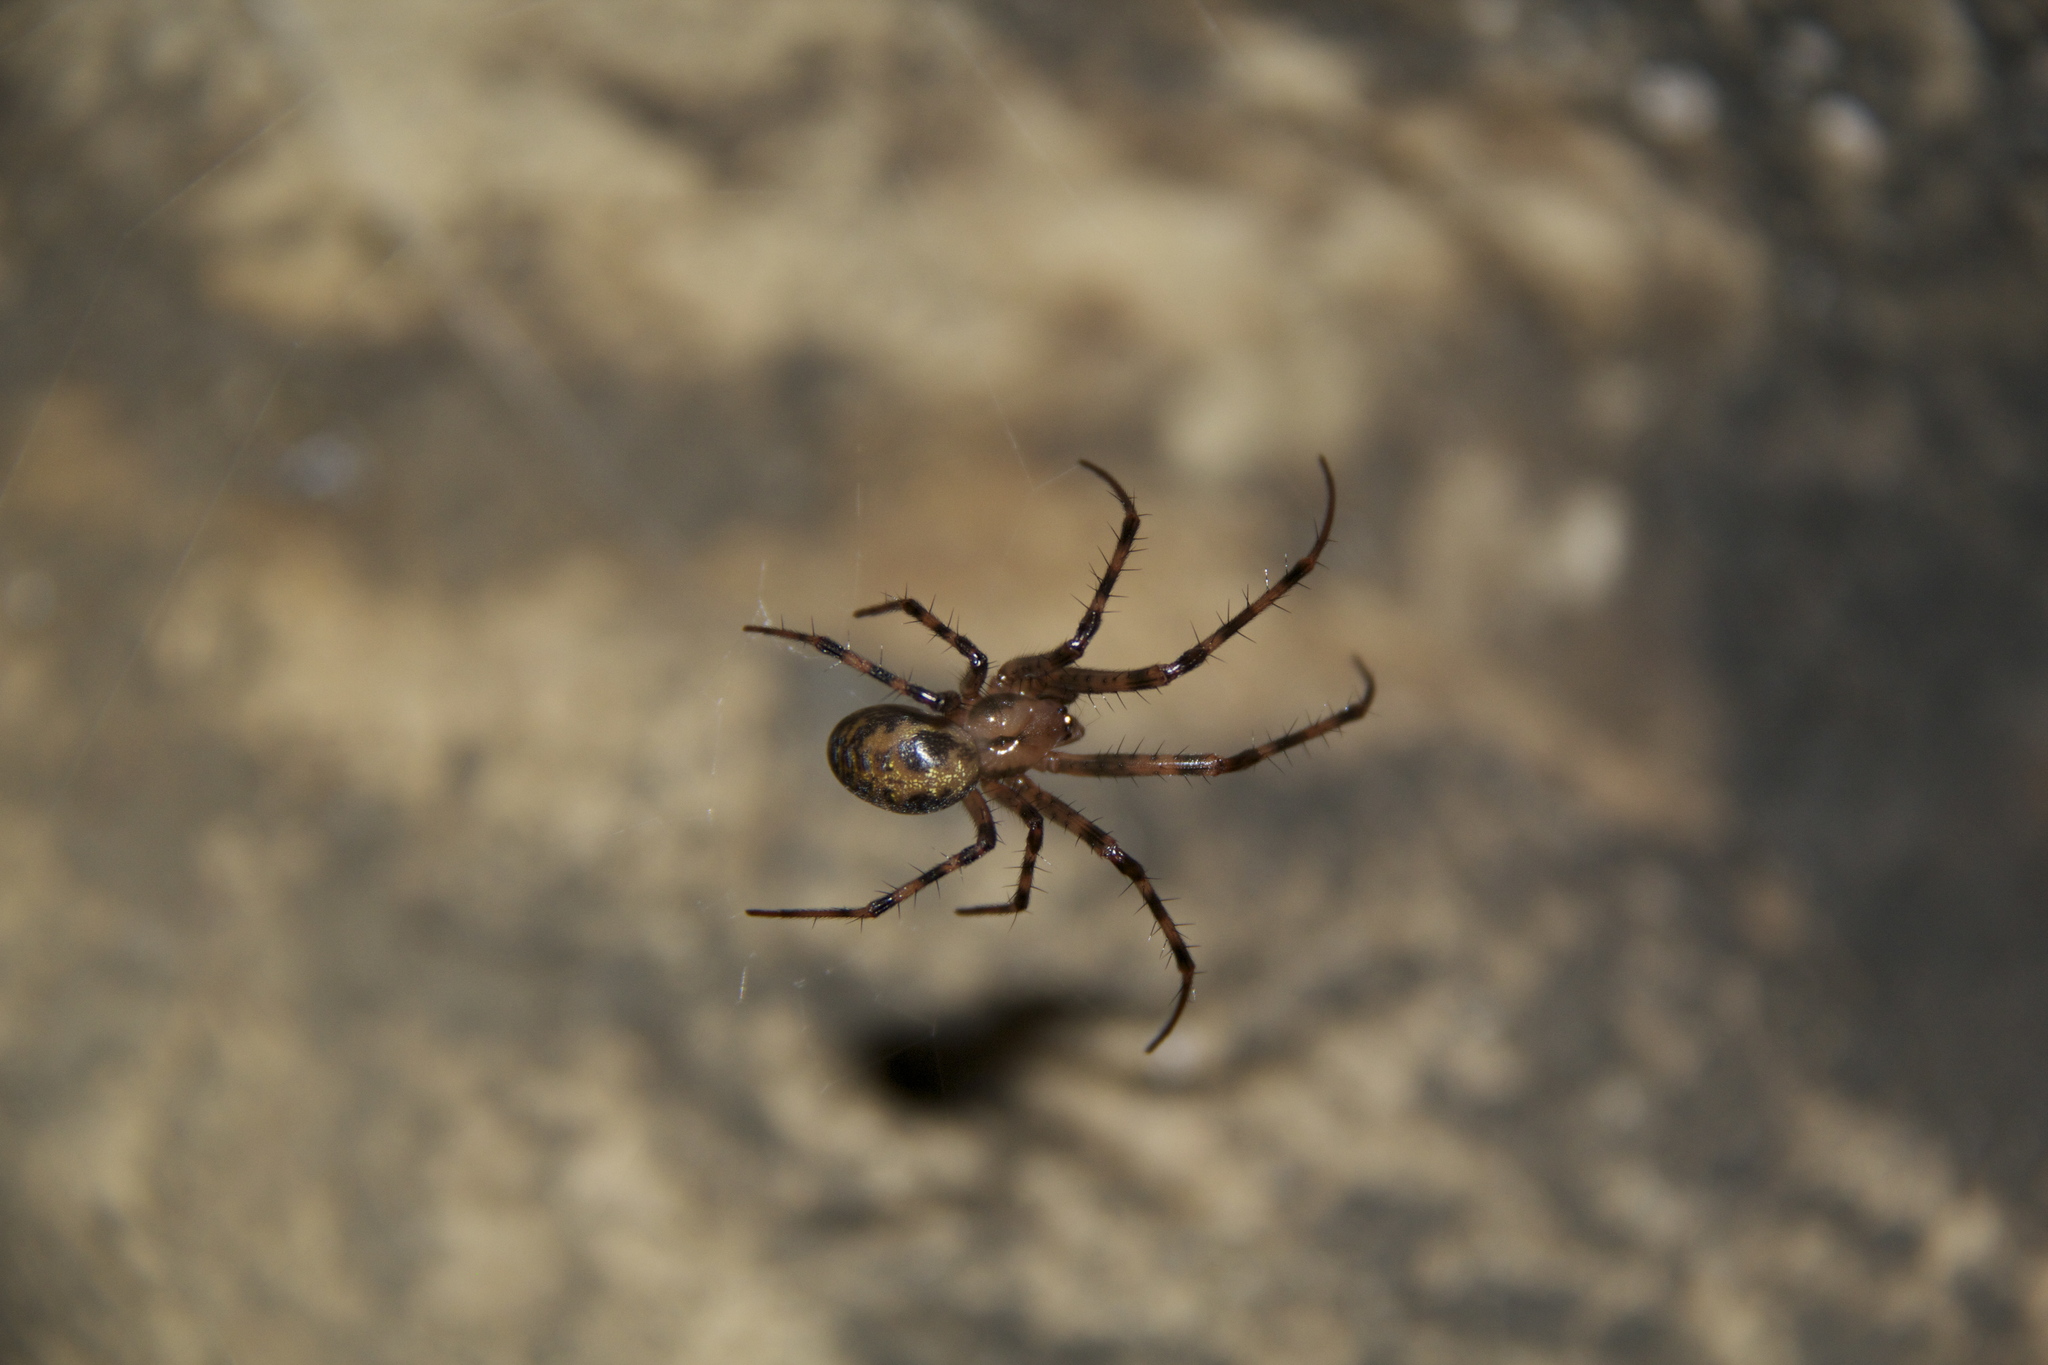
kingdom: Animalia
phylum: Arthropoda
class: Arachnida
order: Araneae
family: Tetragnathidae
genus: Meta
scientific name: Meta menardi
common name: Cave spider
